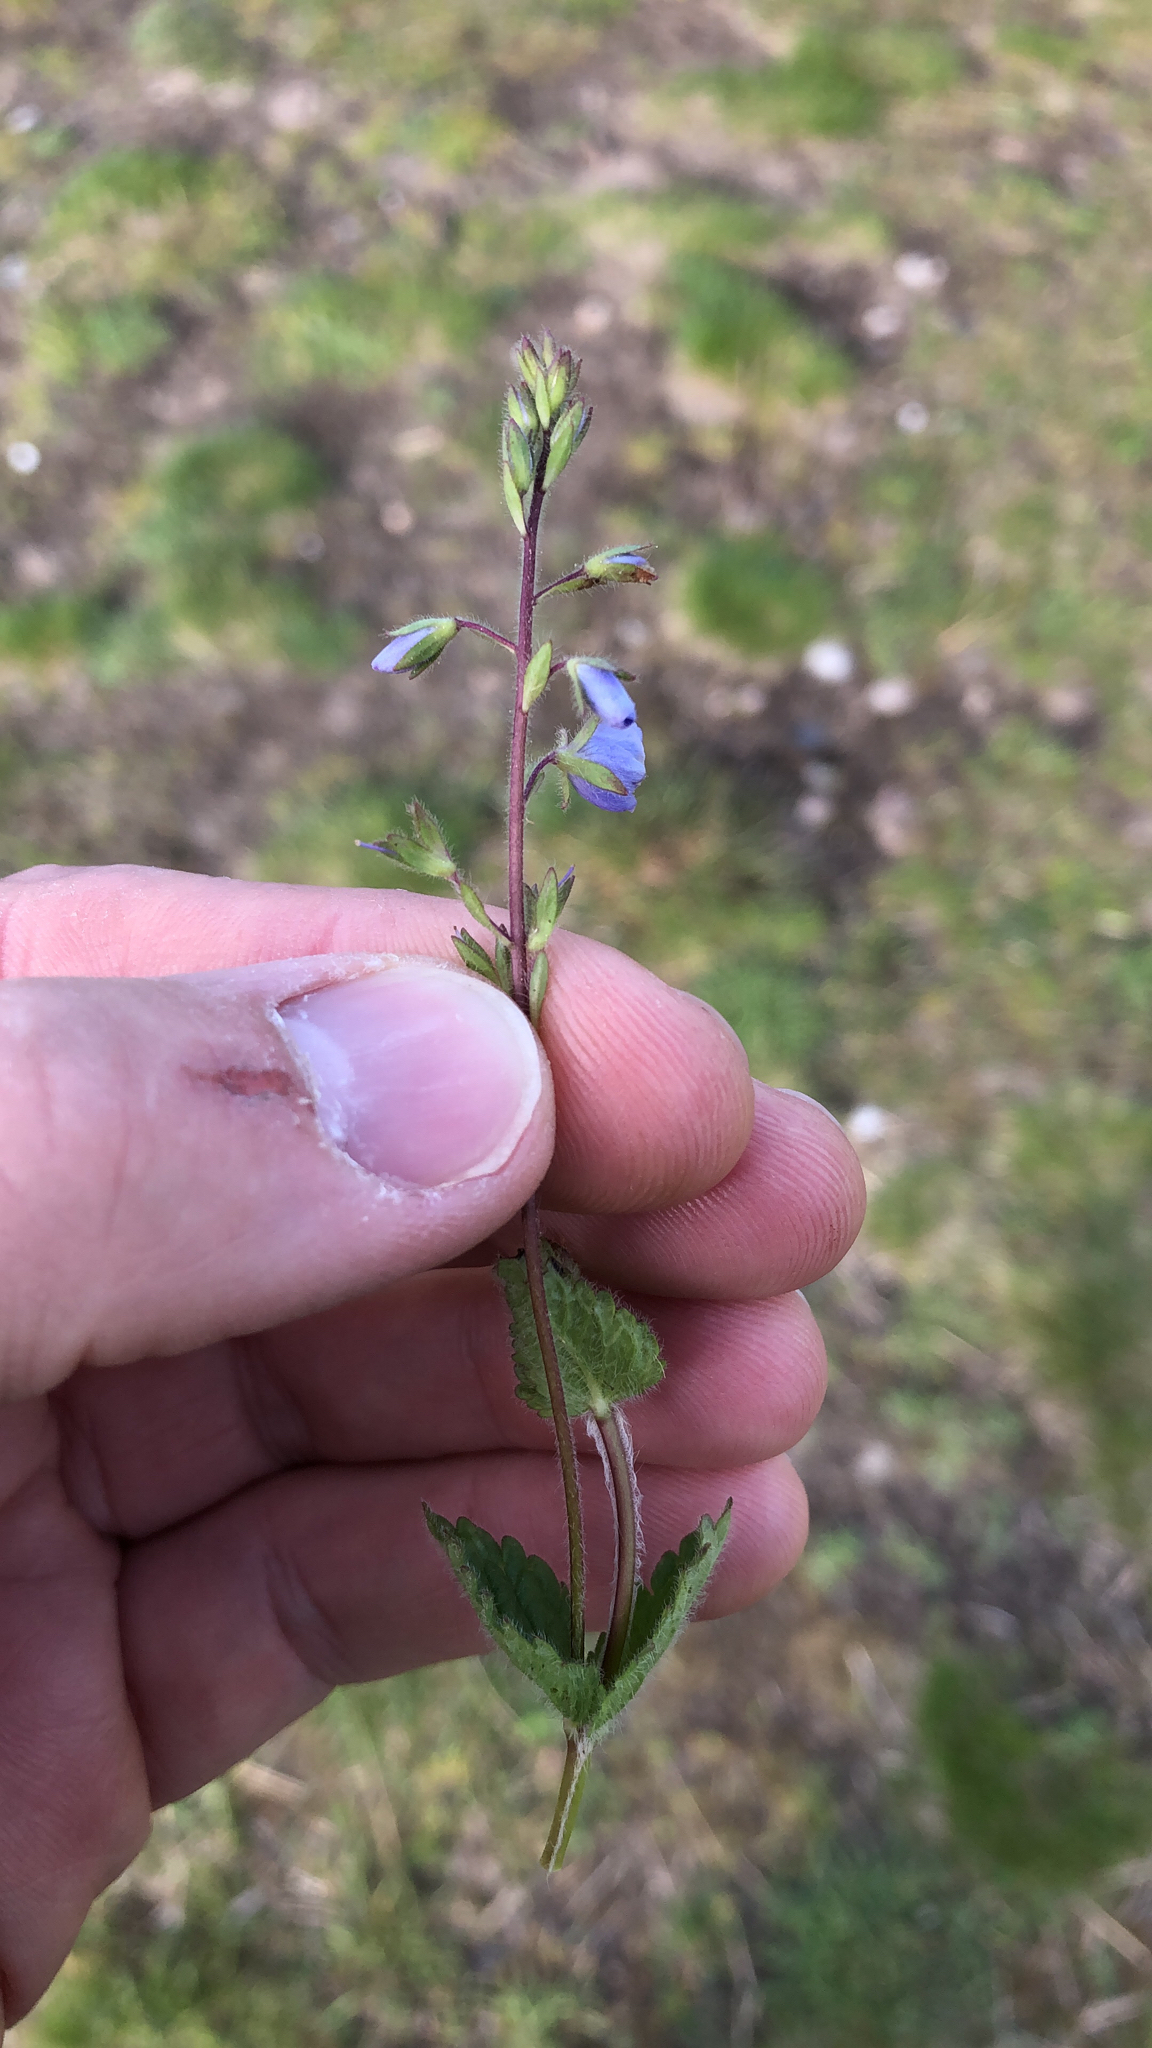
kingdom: Plantae
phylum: Tracheophyta
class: Magnoliopsida
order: Lamiales
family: Plantaginaceae
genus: Veronica
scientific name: Veronica chamaedrys
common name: Germander speedwell
